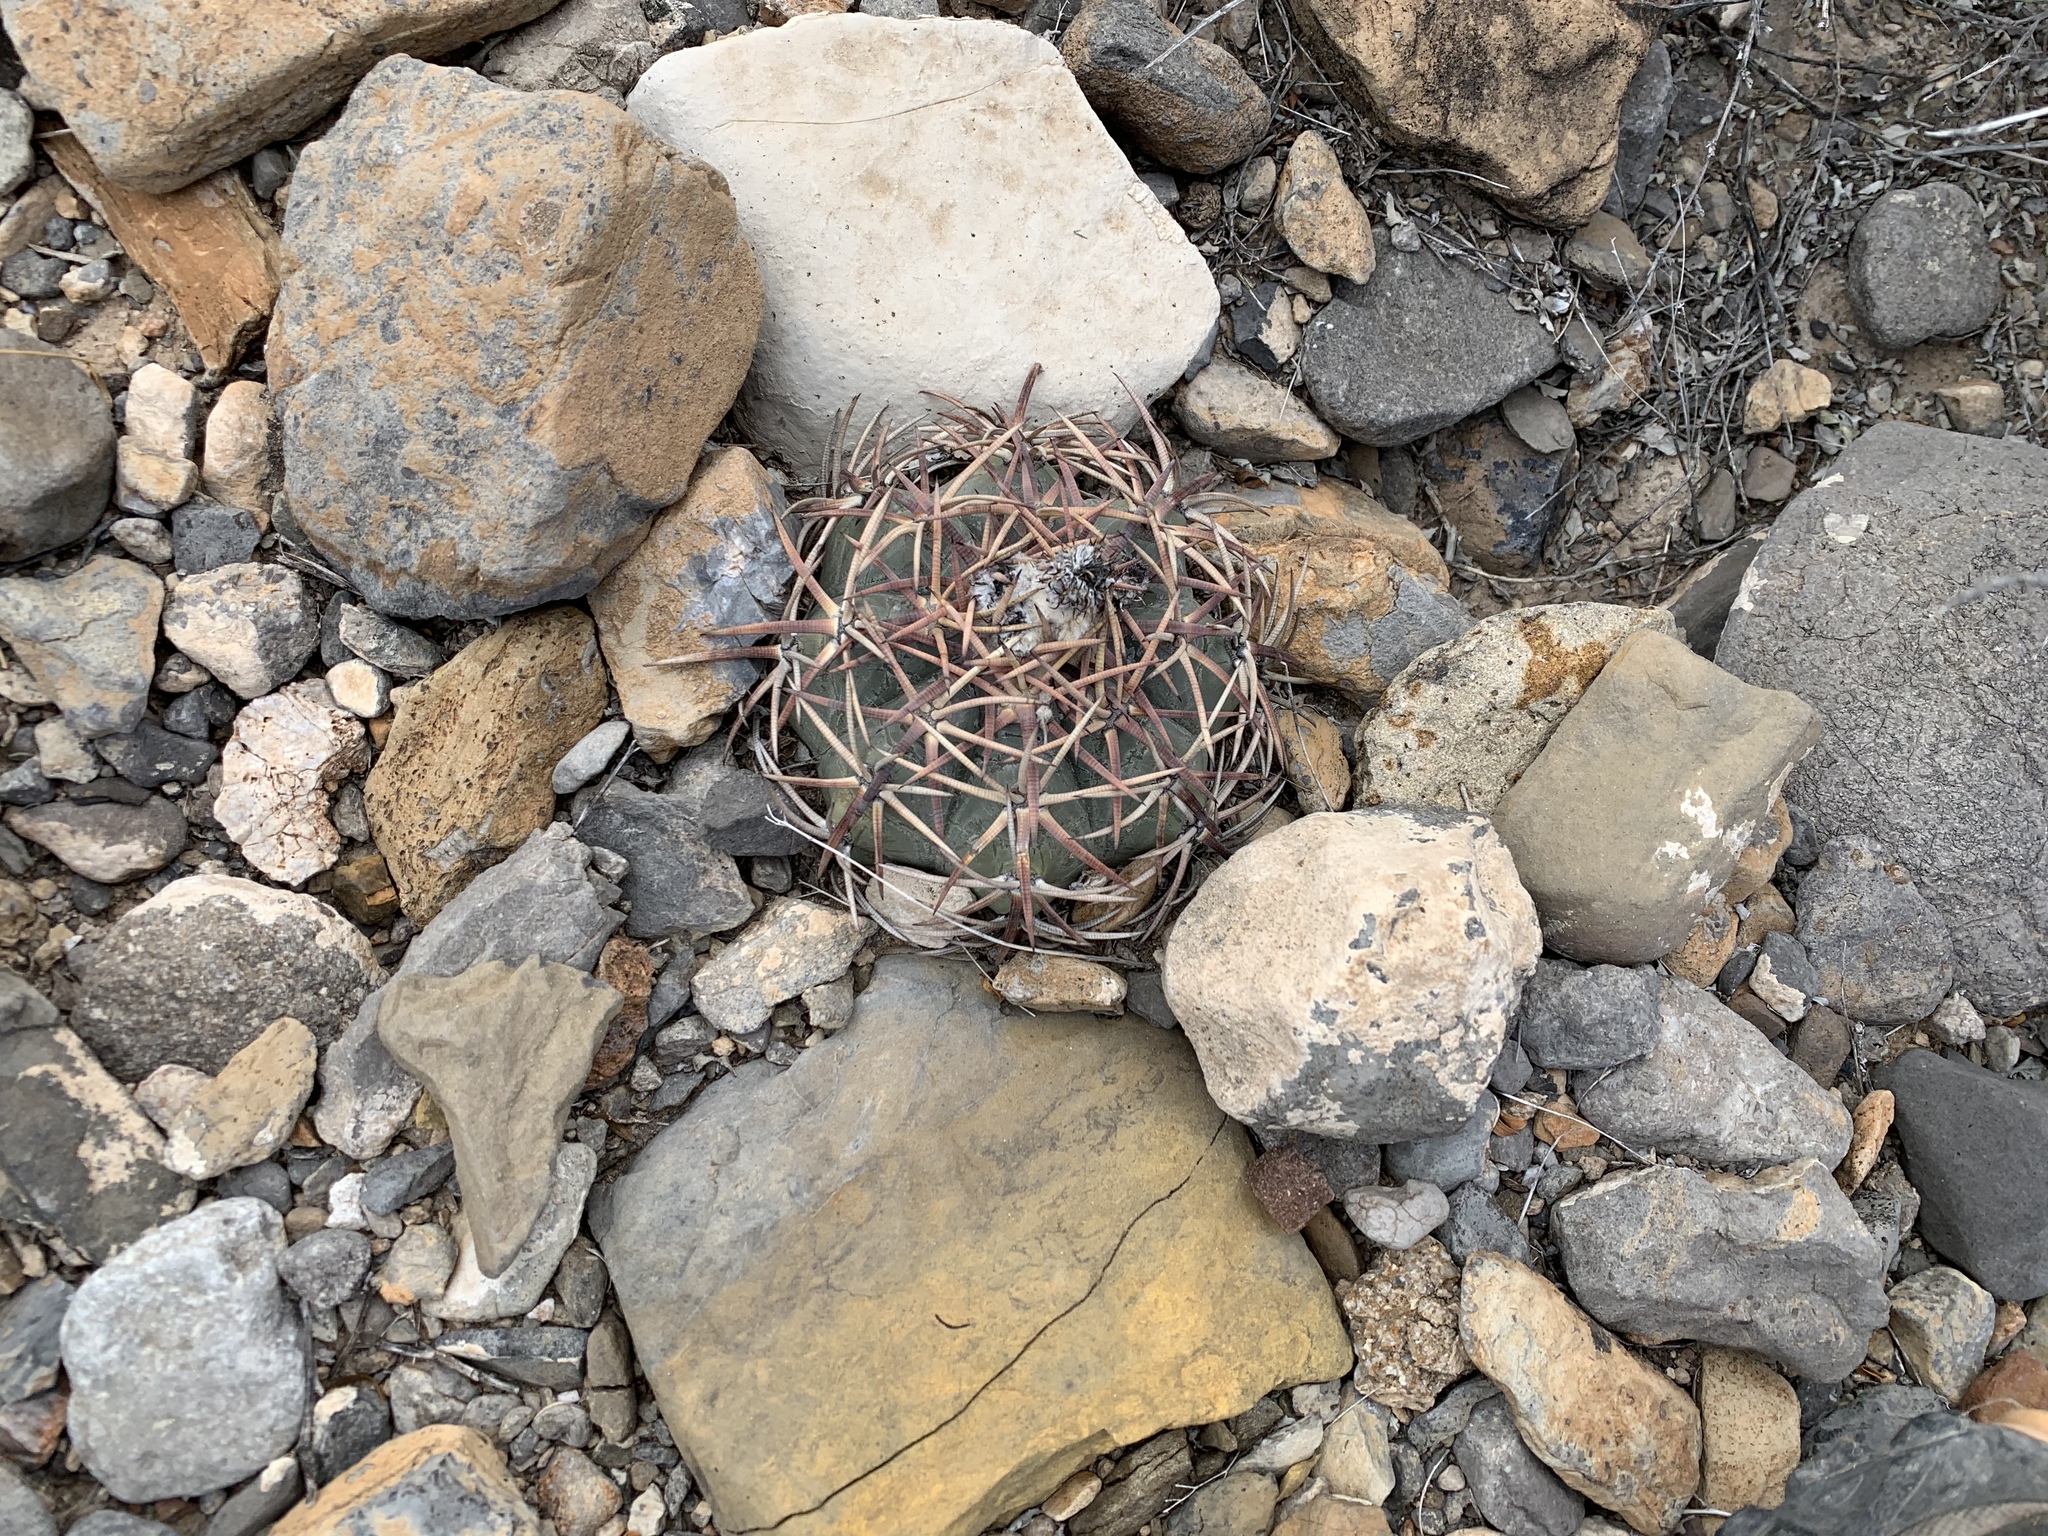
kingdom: Plantae
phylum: Tracheophyta
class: Magnoliopsida
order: Caryophyllales
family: Cactaceae
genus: Echinocactus
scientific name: Echinocactus horizonthalonius
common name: Devilshead
